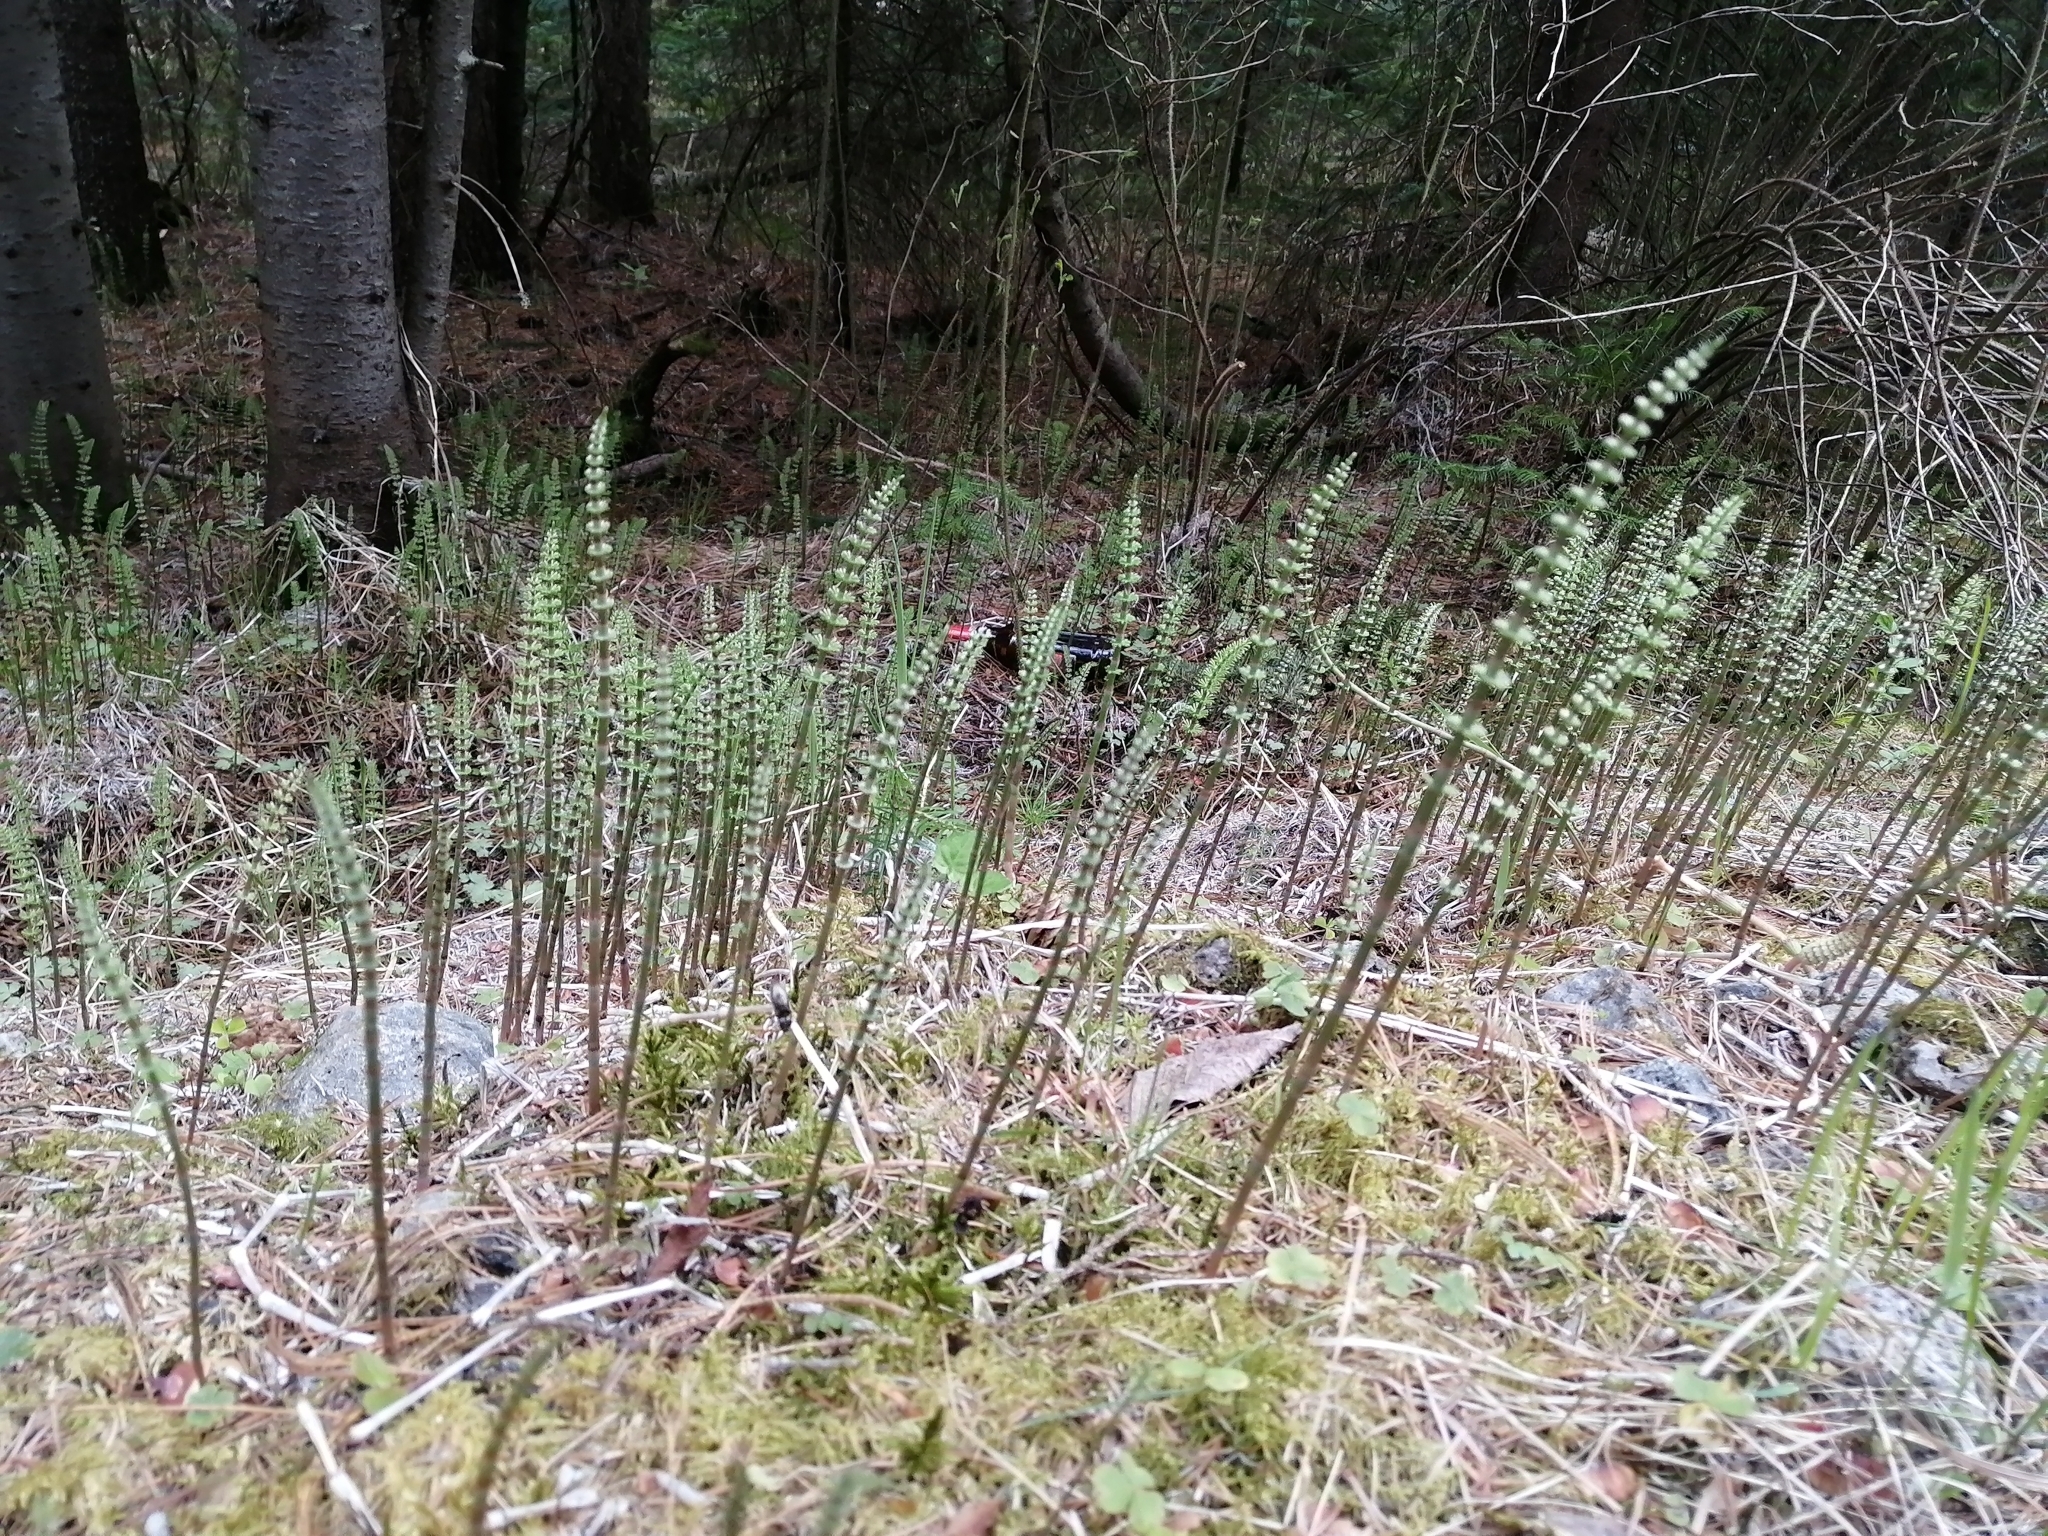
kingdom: Plantae
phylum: Tracheophyta
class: Polypodiopsida
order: Equisetales
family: Equisetaceae
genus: Equisetum
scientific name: Equisetum pratense
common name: Meadow horsetail
